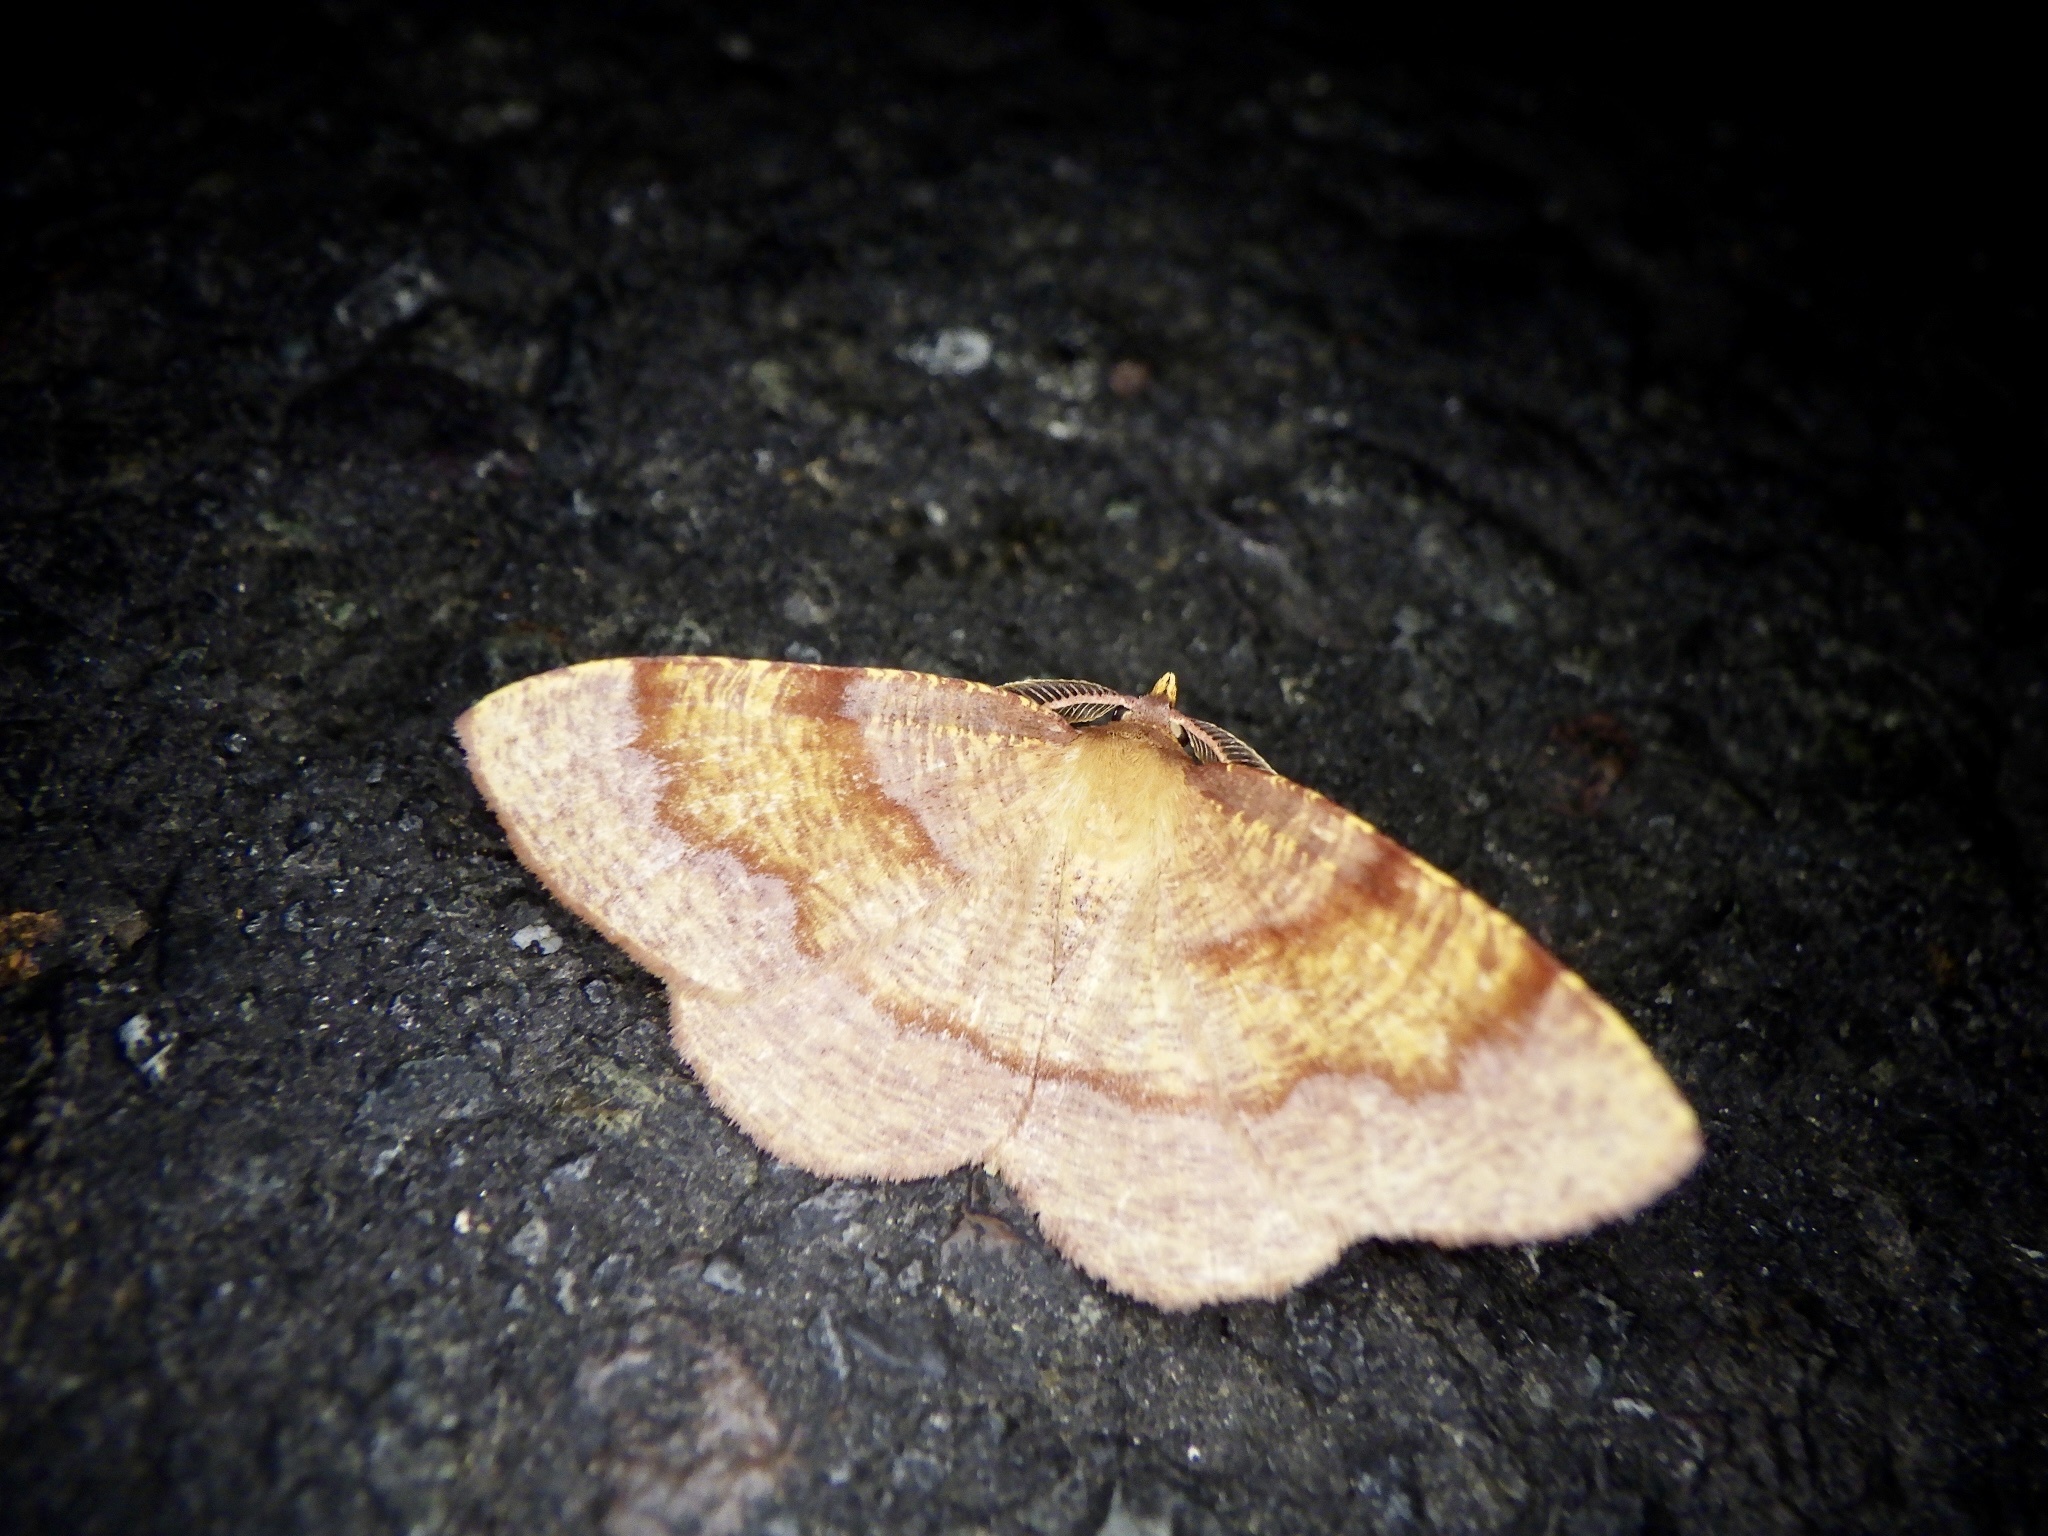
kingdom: Animalia
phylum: Arthropoda
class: Insecta
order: Lepidoptera
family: Geometridae
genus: Plagodis
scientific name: Plagodis pulveraria
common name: Barred umber
